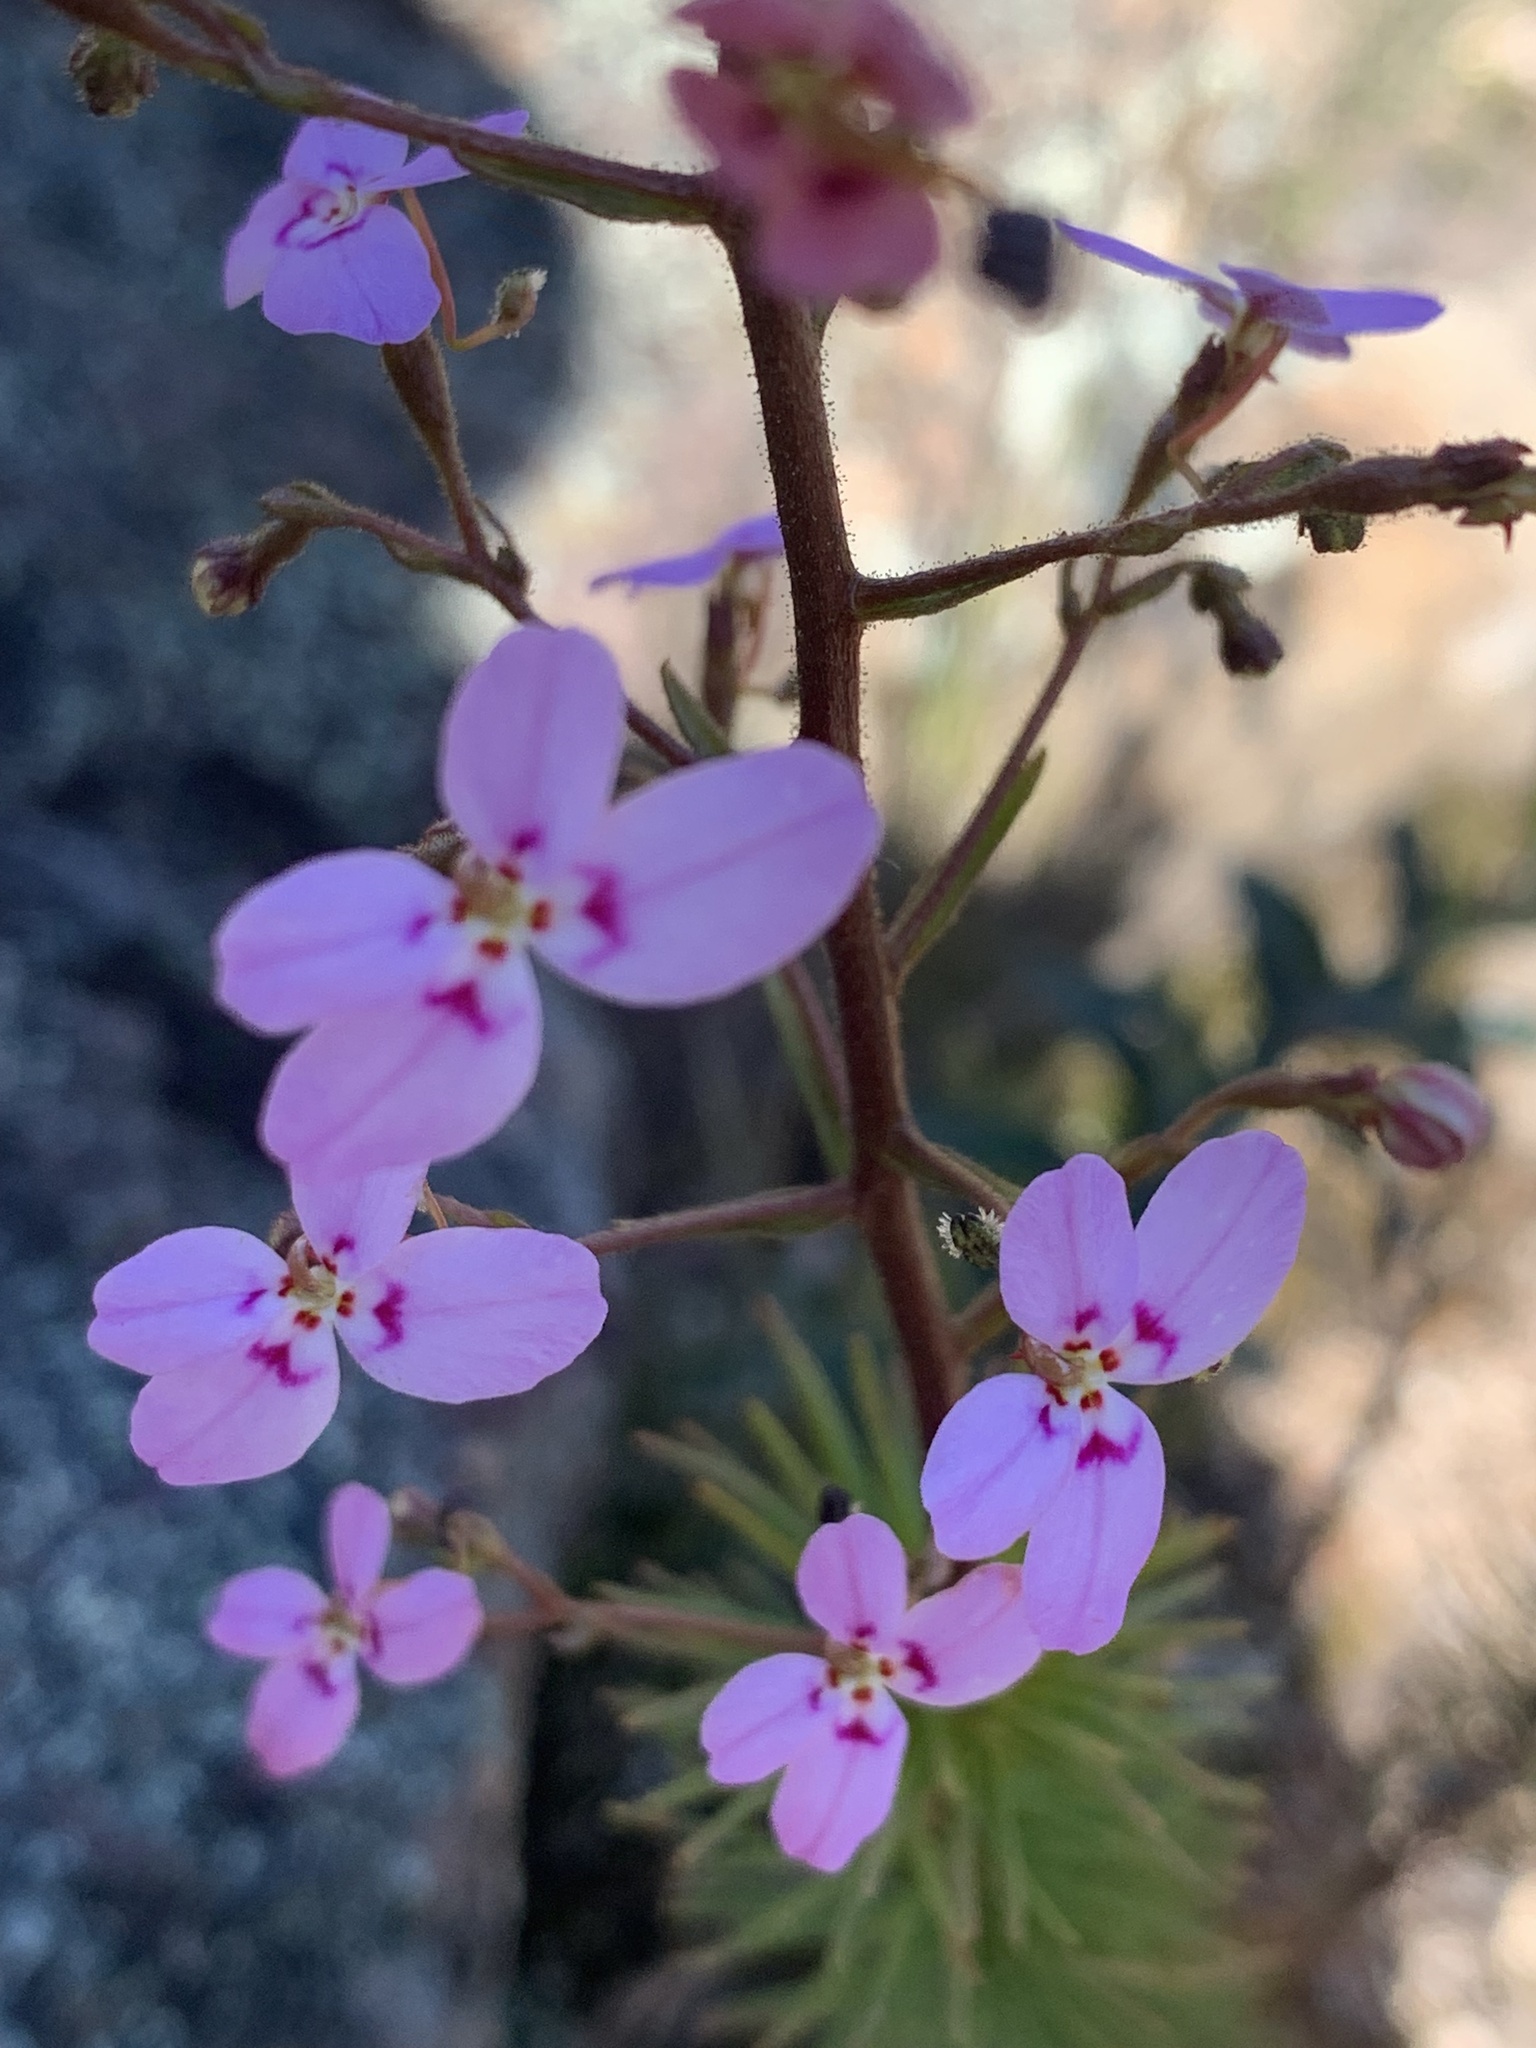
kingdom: Plantae
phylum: Tracheophyta
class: Magnoliopsida
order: Asterales
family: Stylidiaceae
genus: Stylidium
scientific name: Stylidium laricifolium
